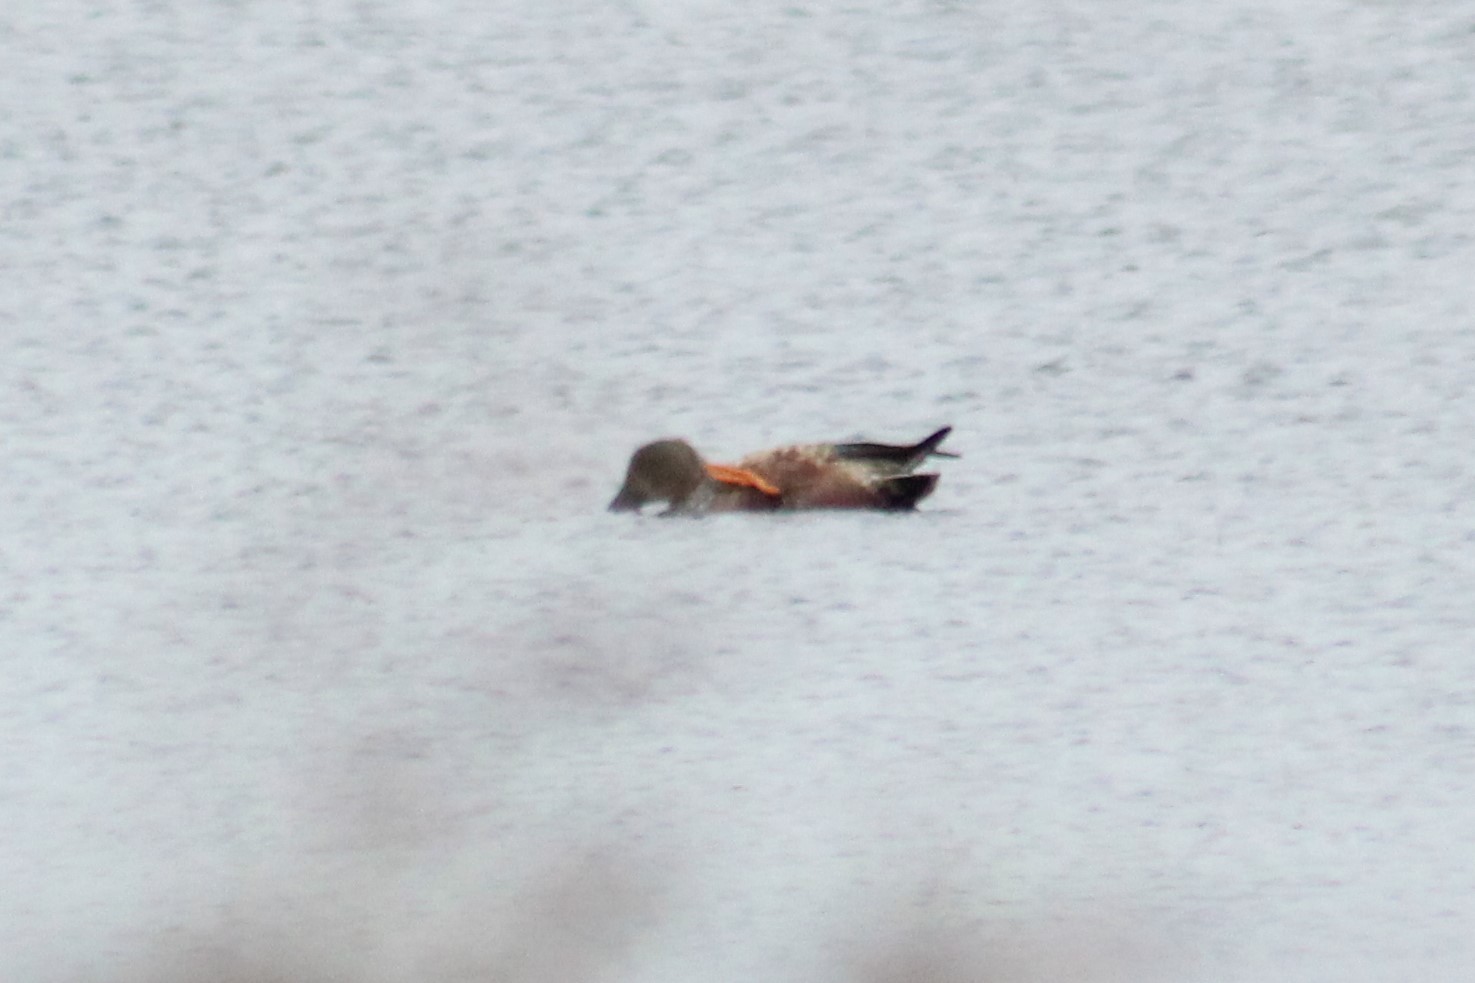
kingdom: Animalia
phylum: Chordata
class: Aves
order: Anseriformes
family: Anatidae
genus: Spatula
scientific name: Spatula clypeata
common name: Northern shoveler
